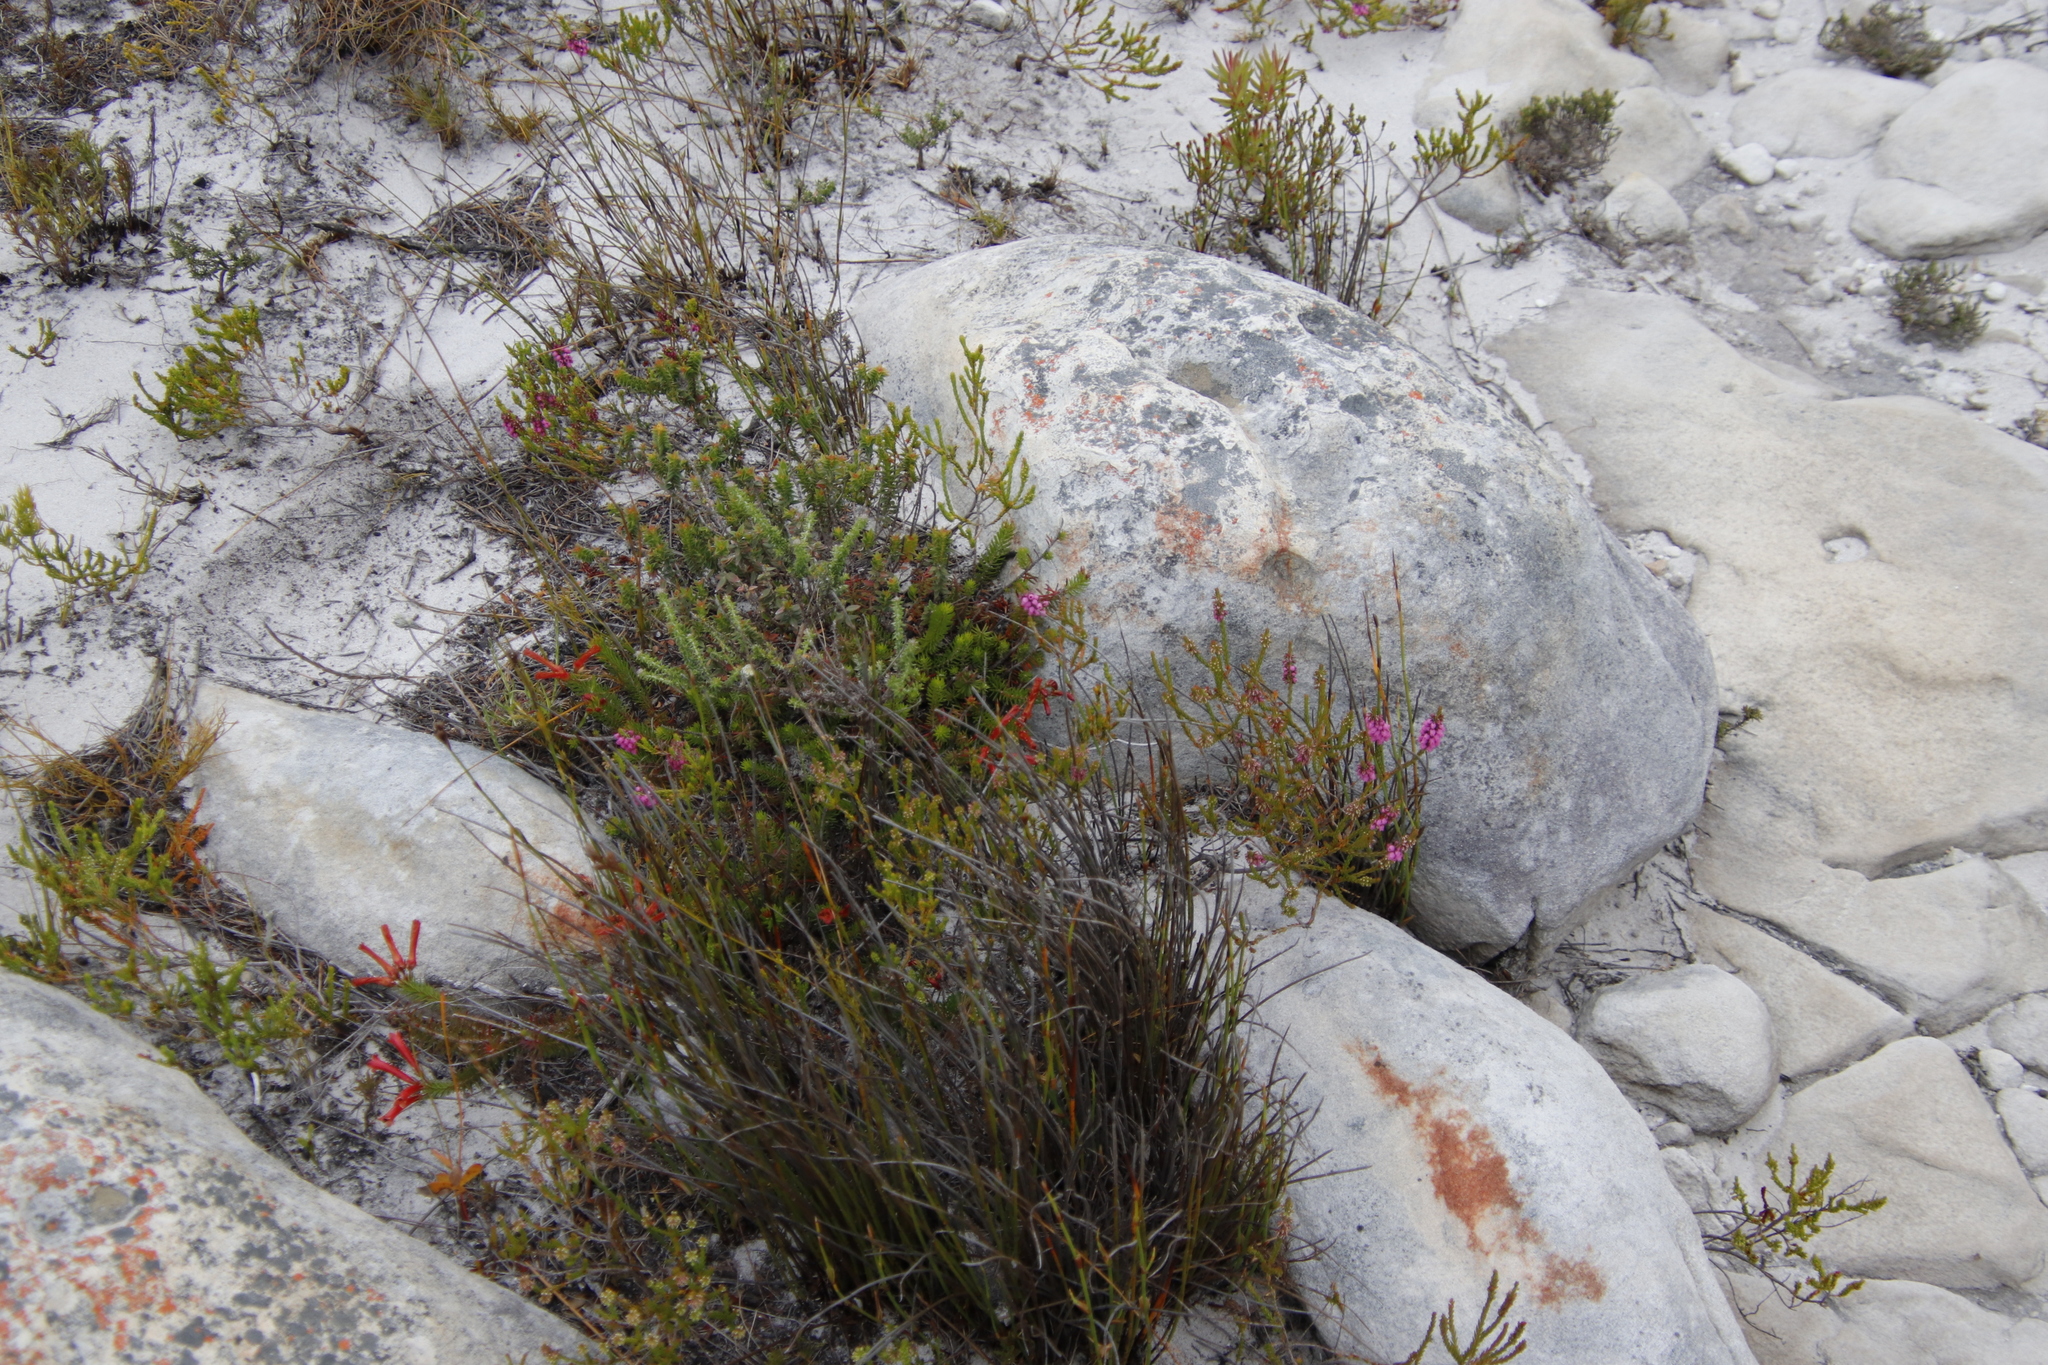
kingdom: Plantae
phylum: Tracheophyta
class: Magnoliopsida
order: Ericales
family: Ericaceae
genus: Erica
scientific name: Erica nevillei
